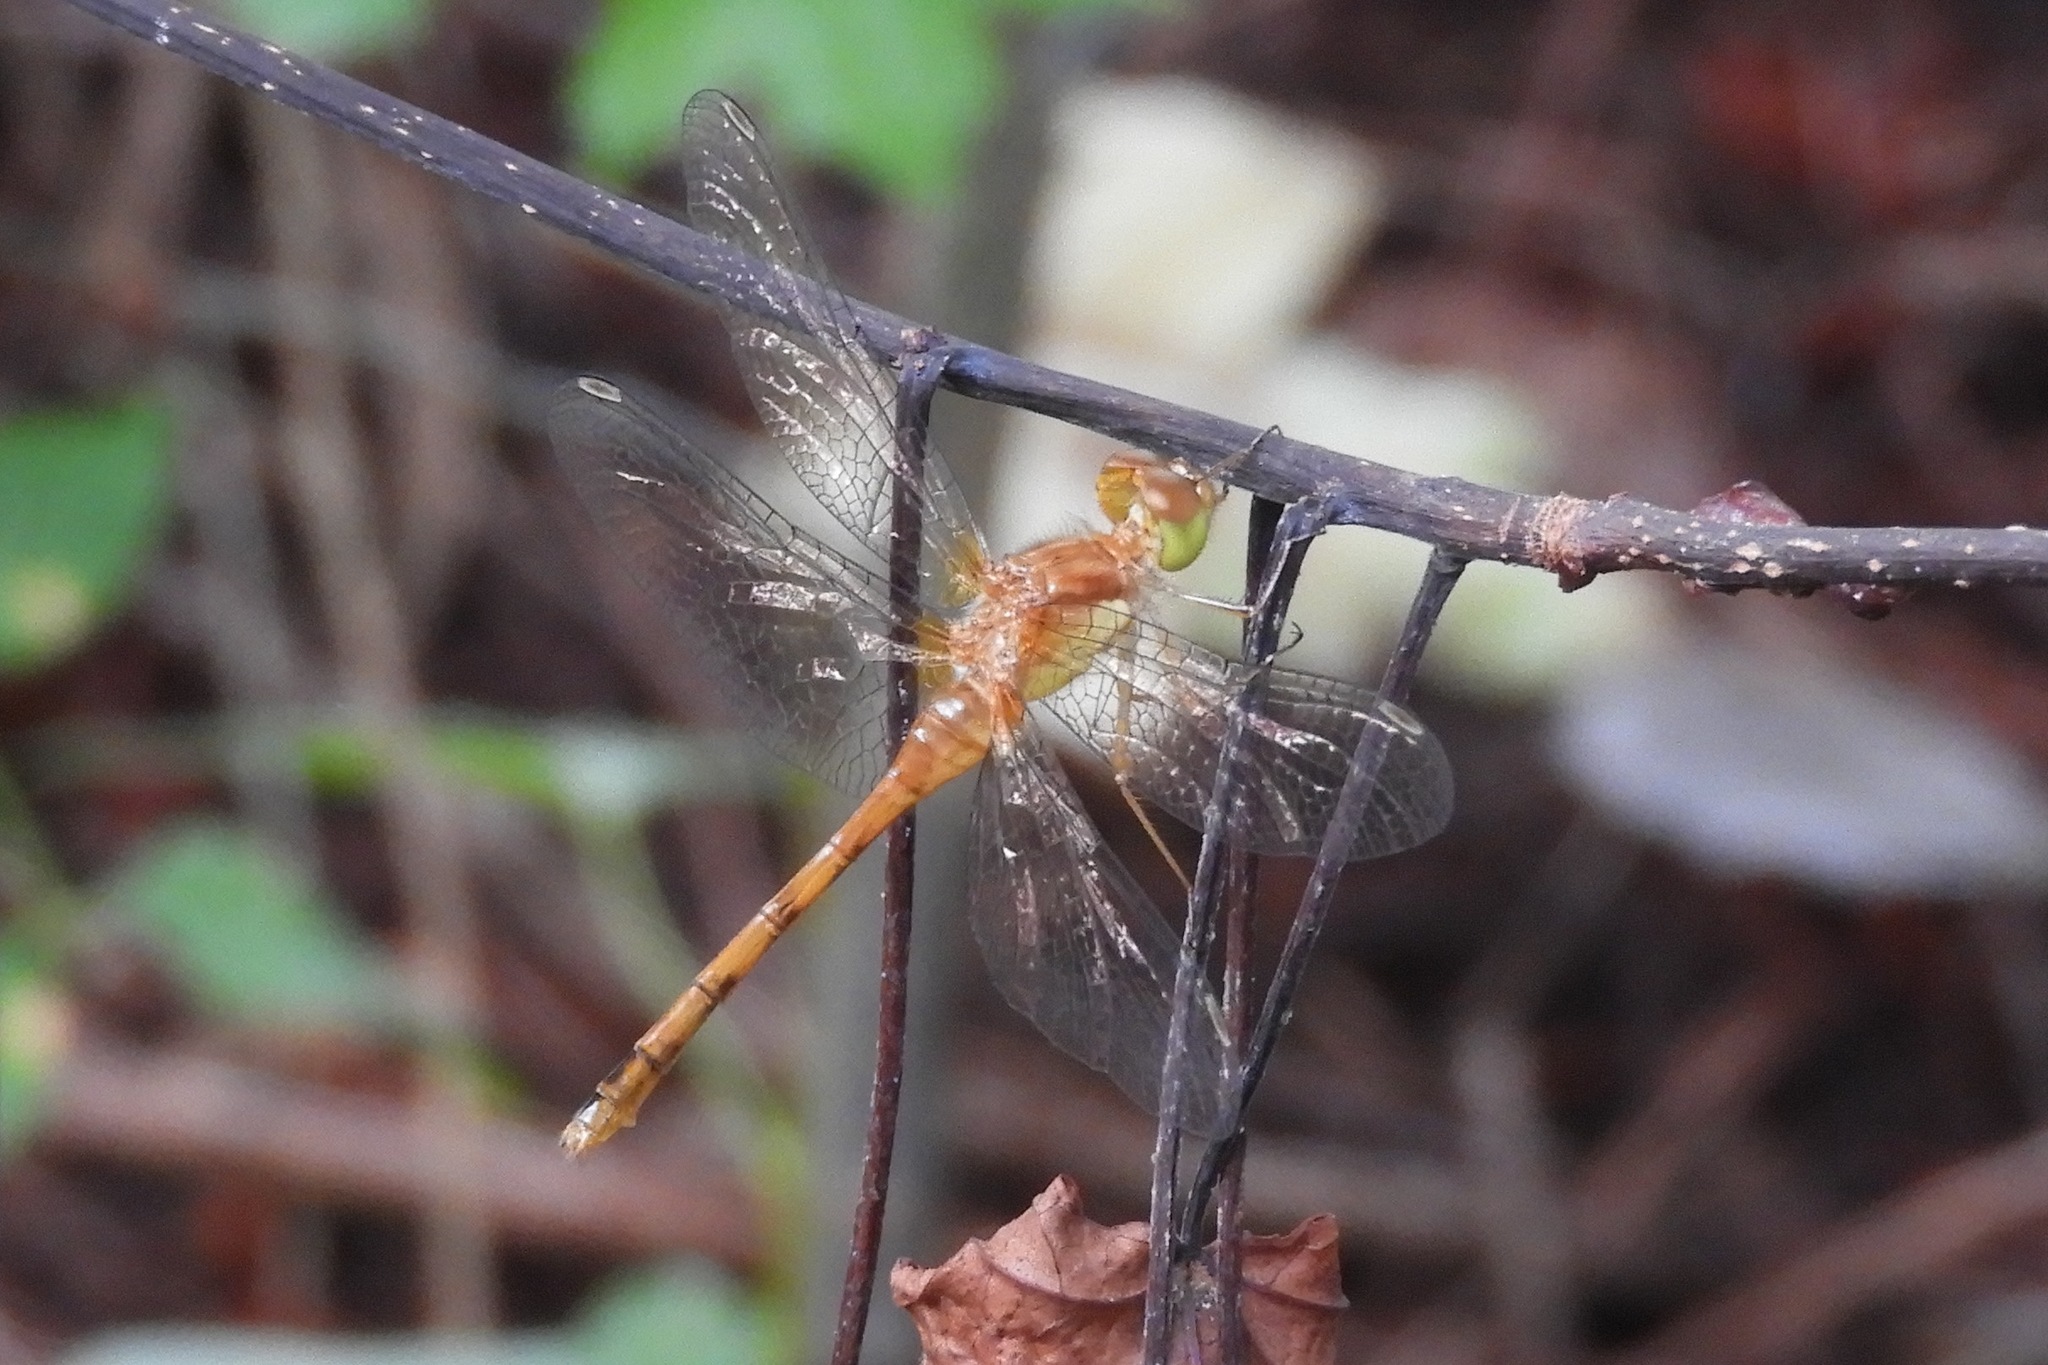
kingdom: Animalia
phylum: Arthropoda
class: Insecta
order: Odonata
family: Libellulidae
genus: Sympetrum
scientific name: Sympetrum vicinum
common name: Autumn meadowhawk
